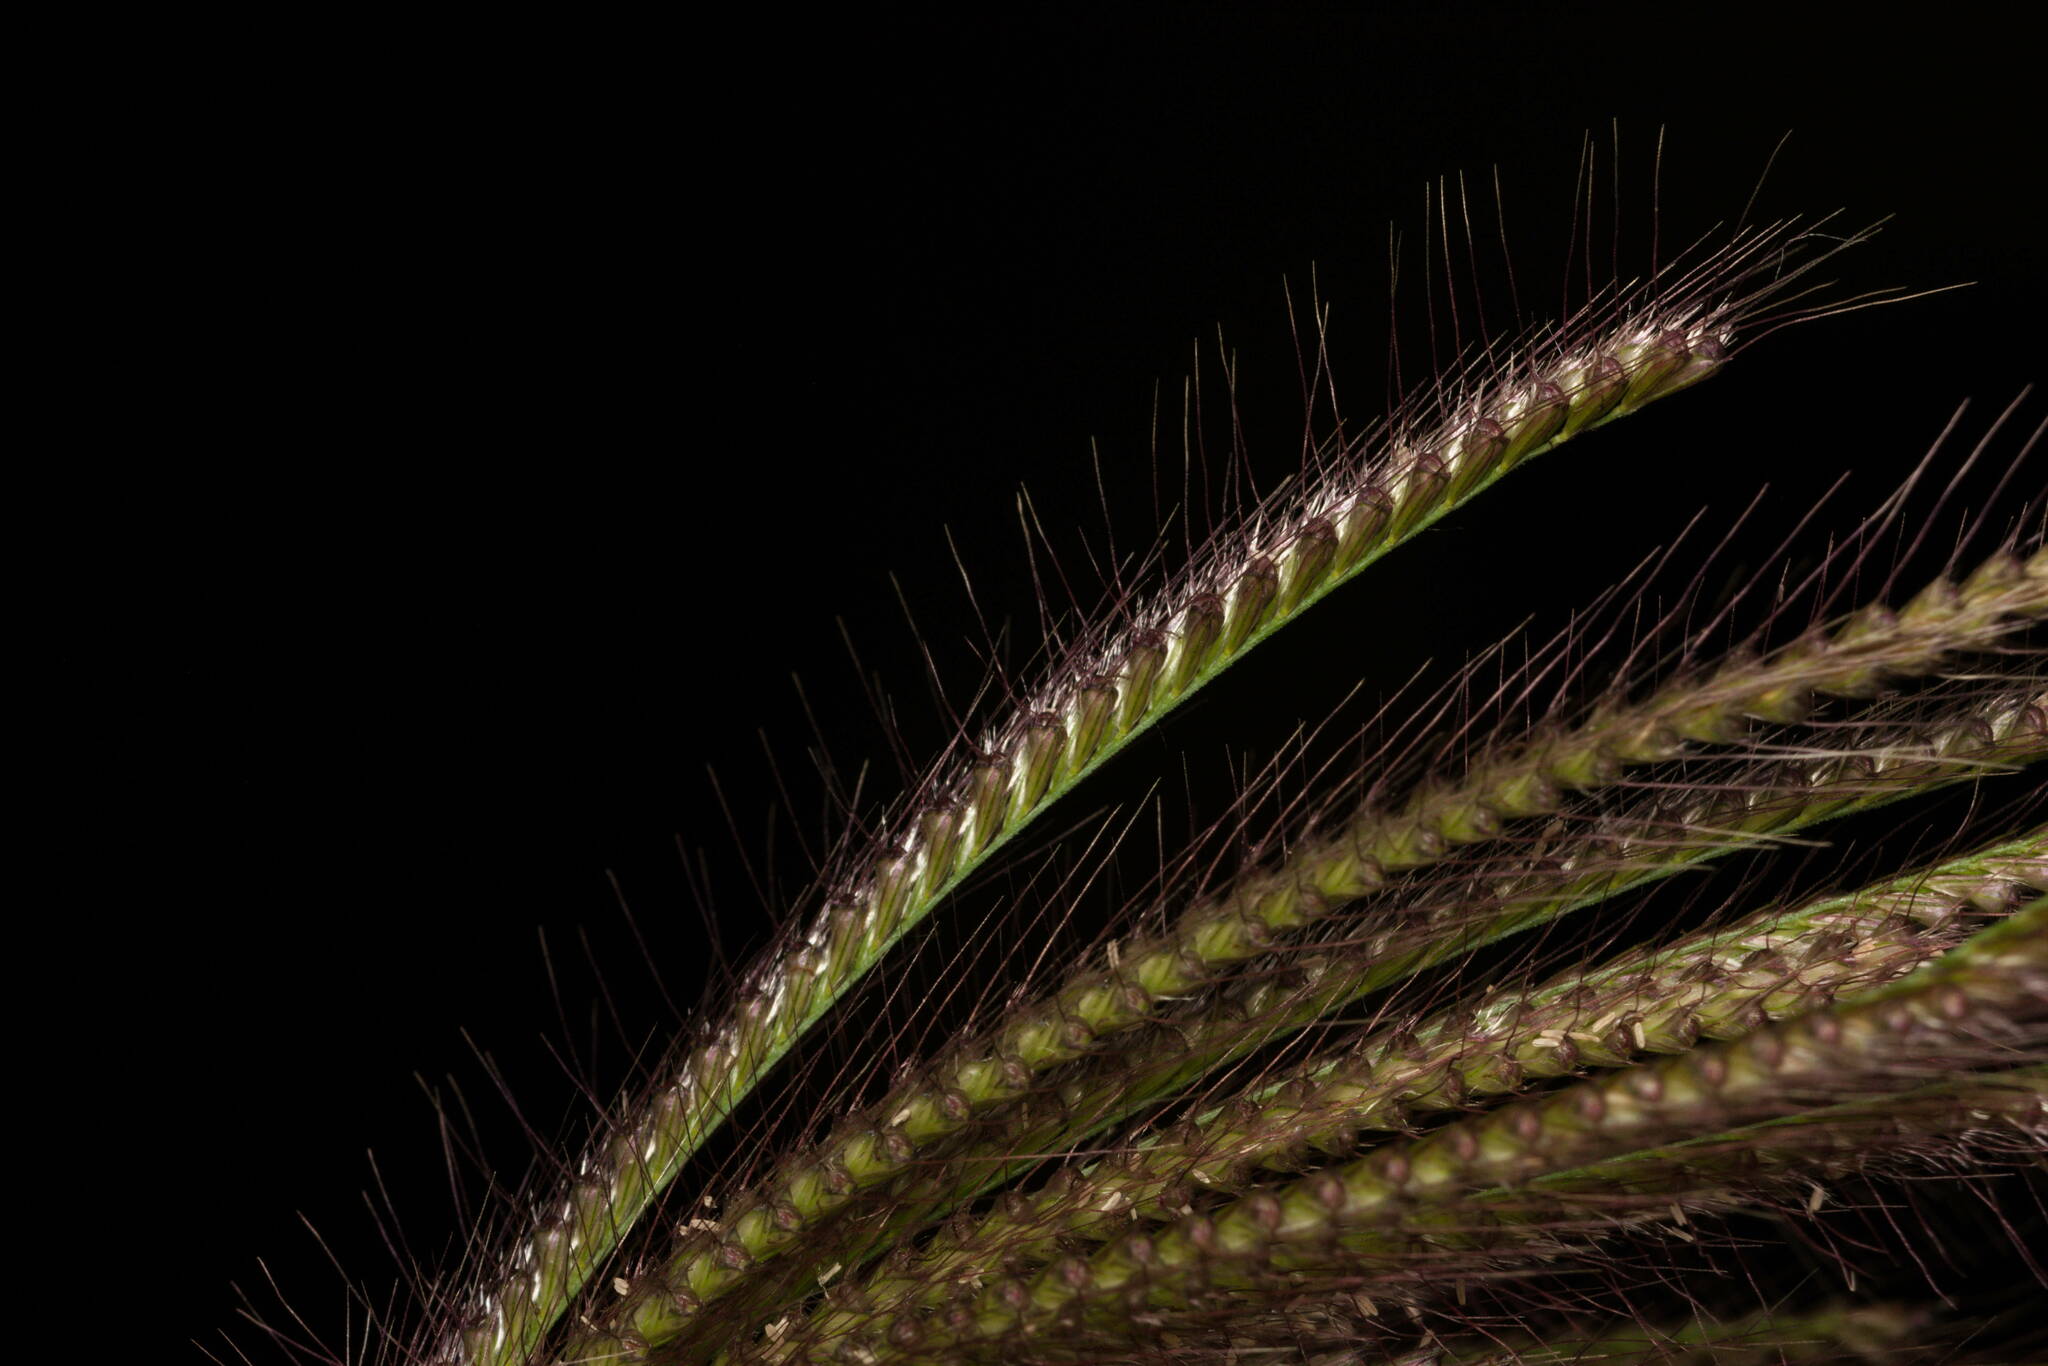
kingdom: Plantae
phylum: Tracheophyta
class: Liliopsida
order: Poales
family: Poaceae
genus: Chloris
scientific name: Chloris barbata
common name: Swollen fingergrass
